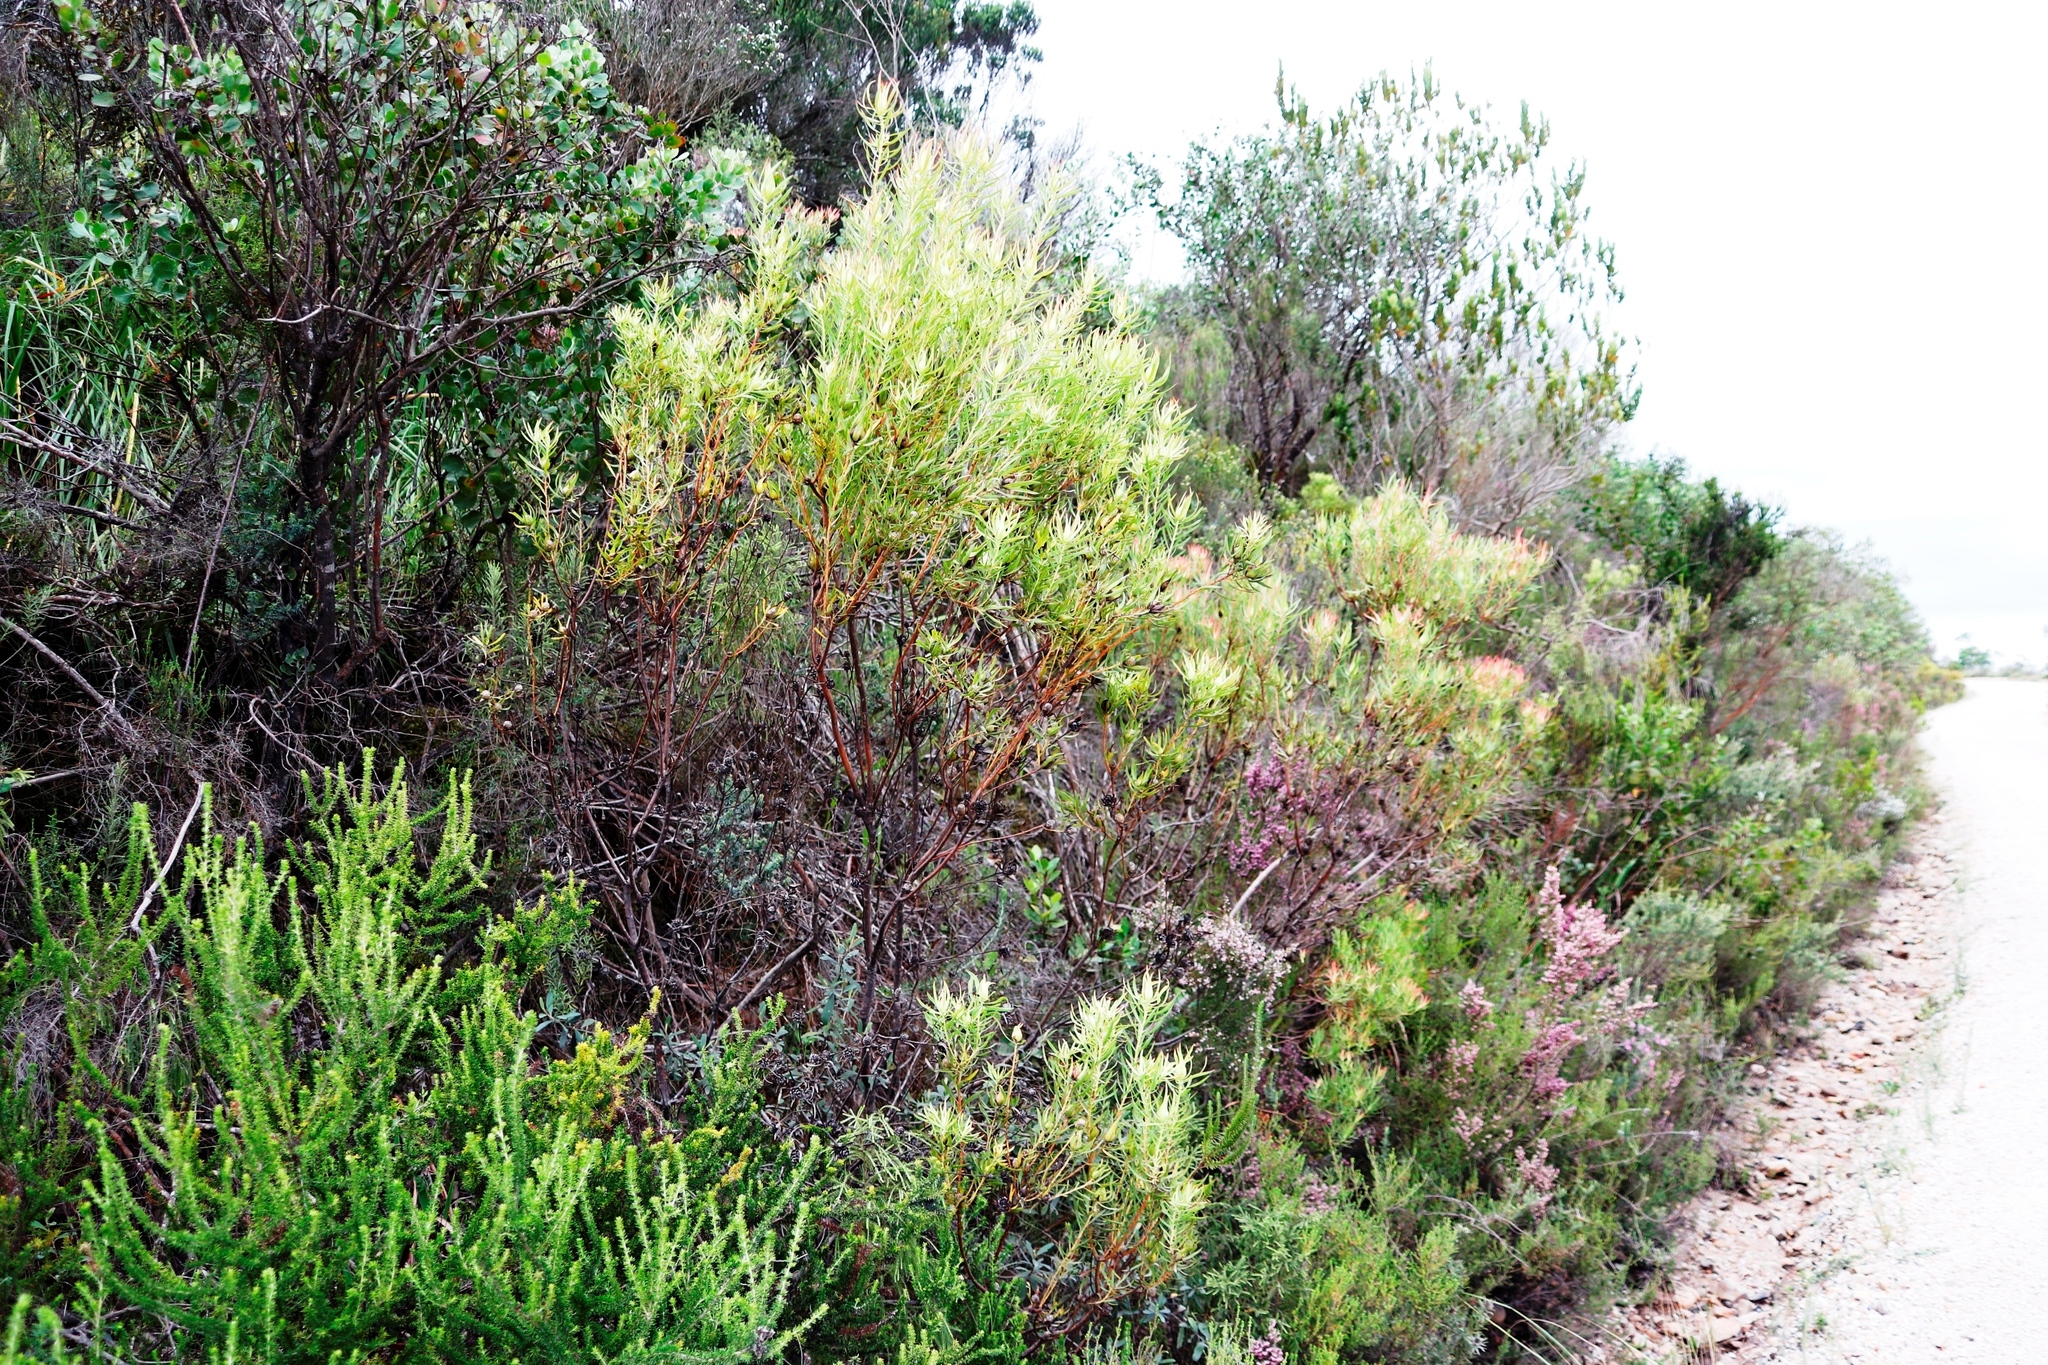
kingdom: Plantae
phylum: Tracheophyta
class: Magnoliopsida
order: Proteales
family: Proteaceae
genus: Leucadendron
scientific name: Leucadendron salignum
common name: Common sunshine conebush
